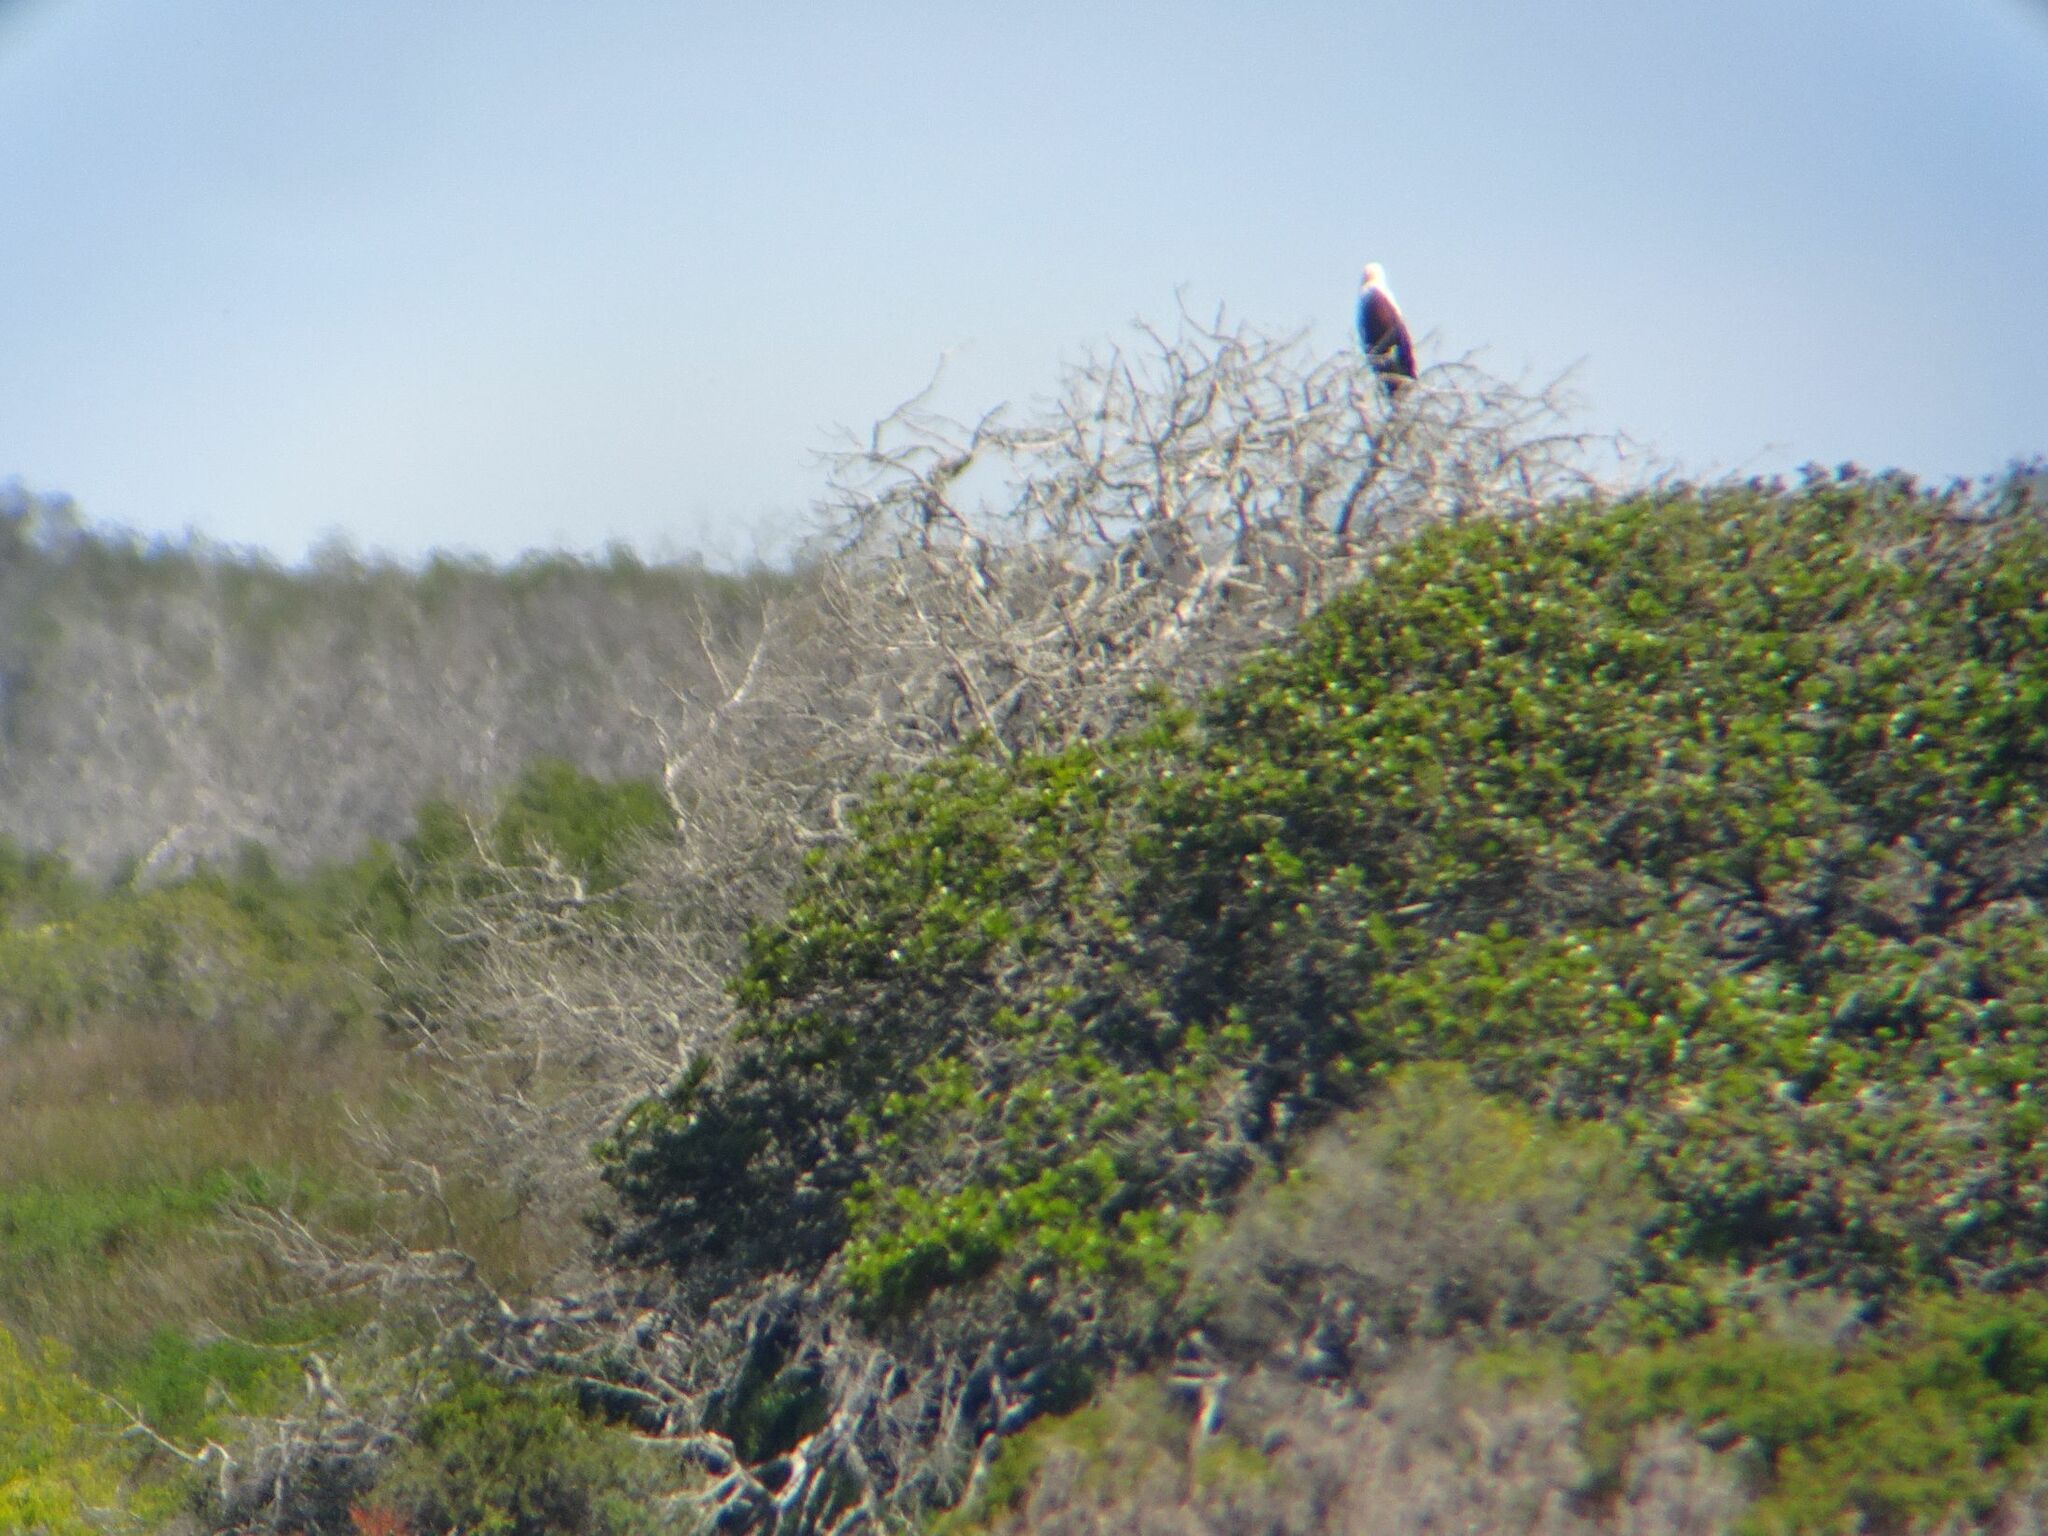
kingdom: Animalia
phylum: Chordata
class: Aves
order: Accipitriformes
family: Accipitridae
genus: Haliaeetus
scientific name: Haliaeetus vocifer
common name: African fish eagle
